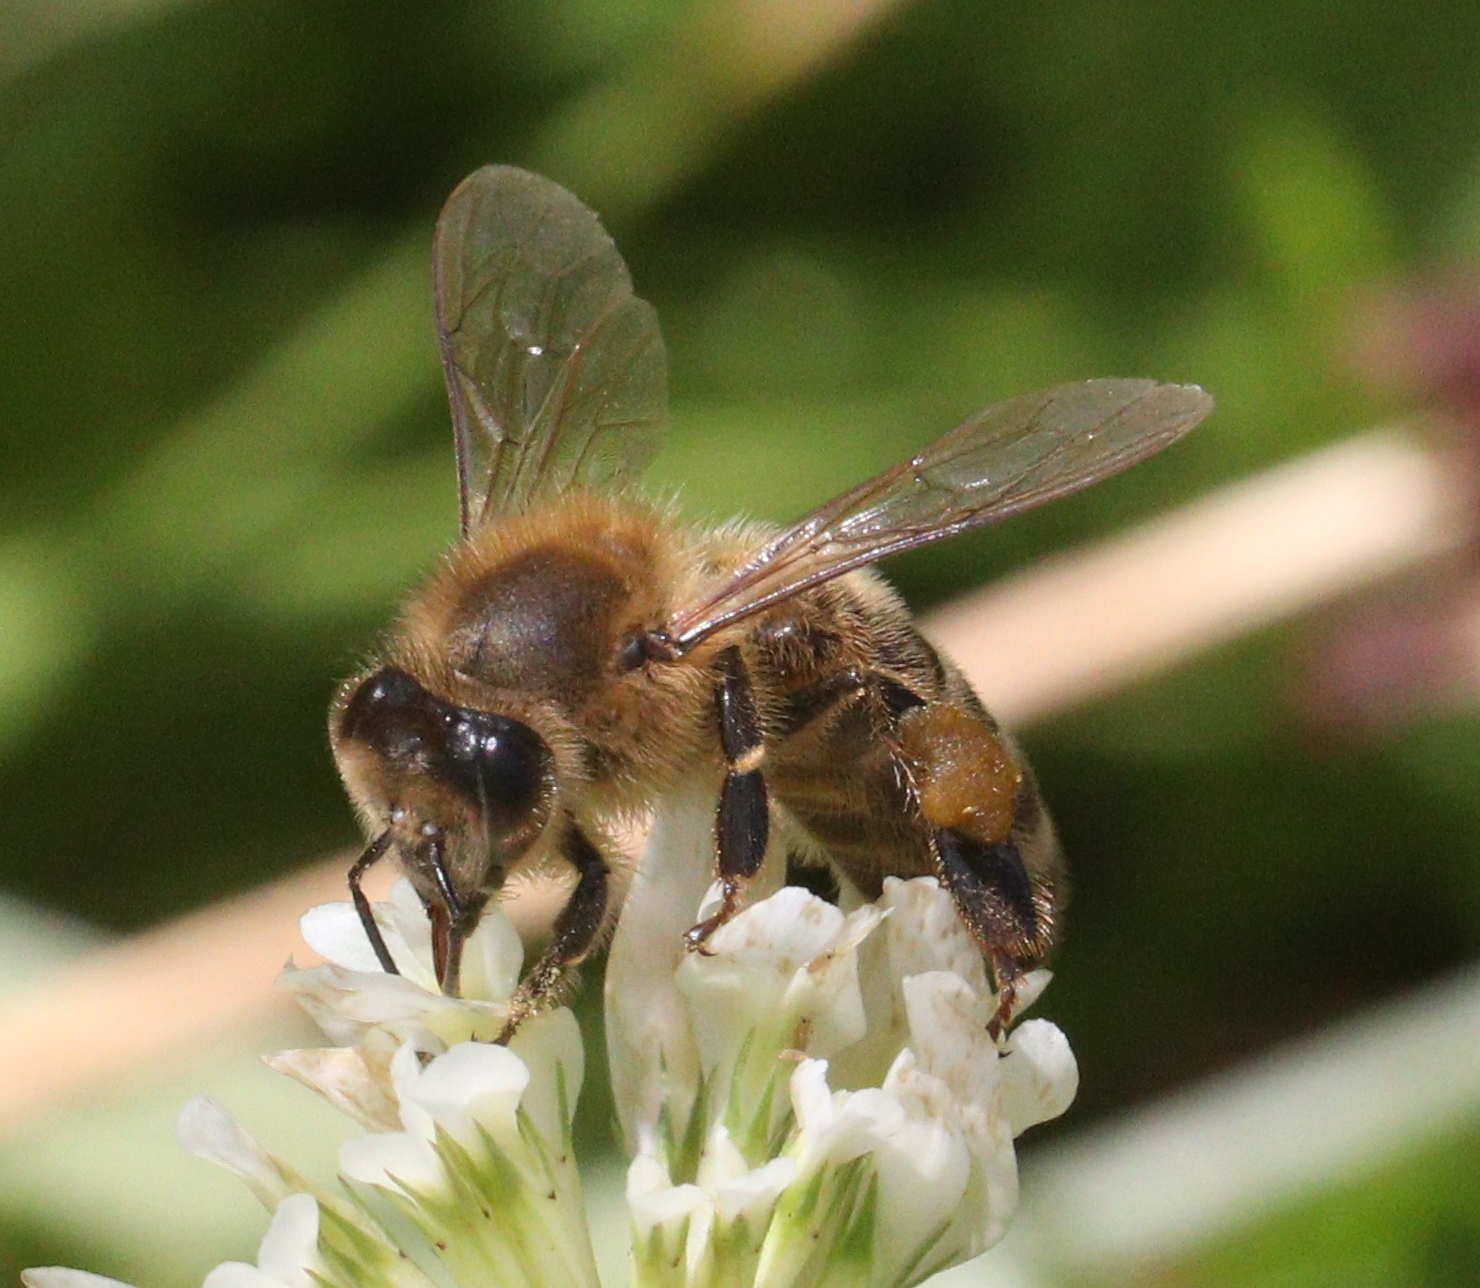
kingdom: Animalia
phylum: Arthropoda
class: Insecta
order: Hymenoptera
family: Apidae
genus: Apis
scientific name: Apis mellifera
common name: Honey bee
